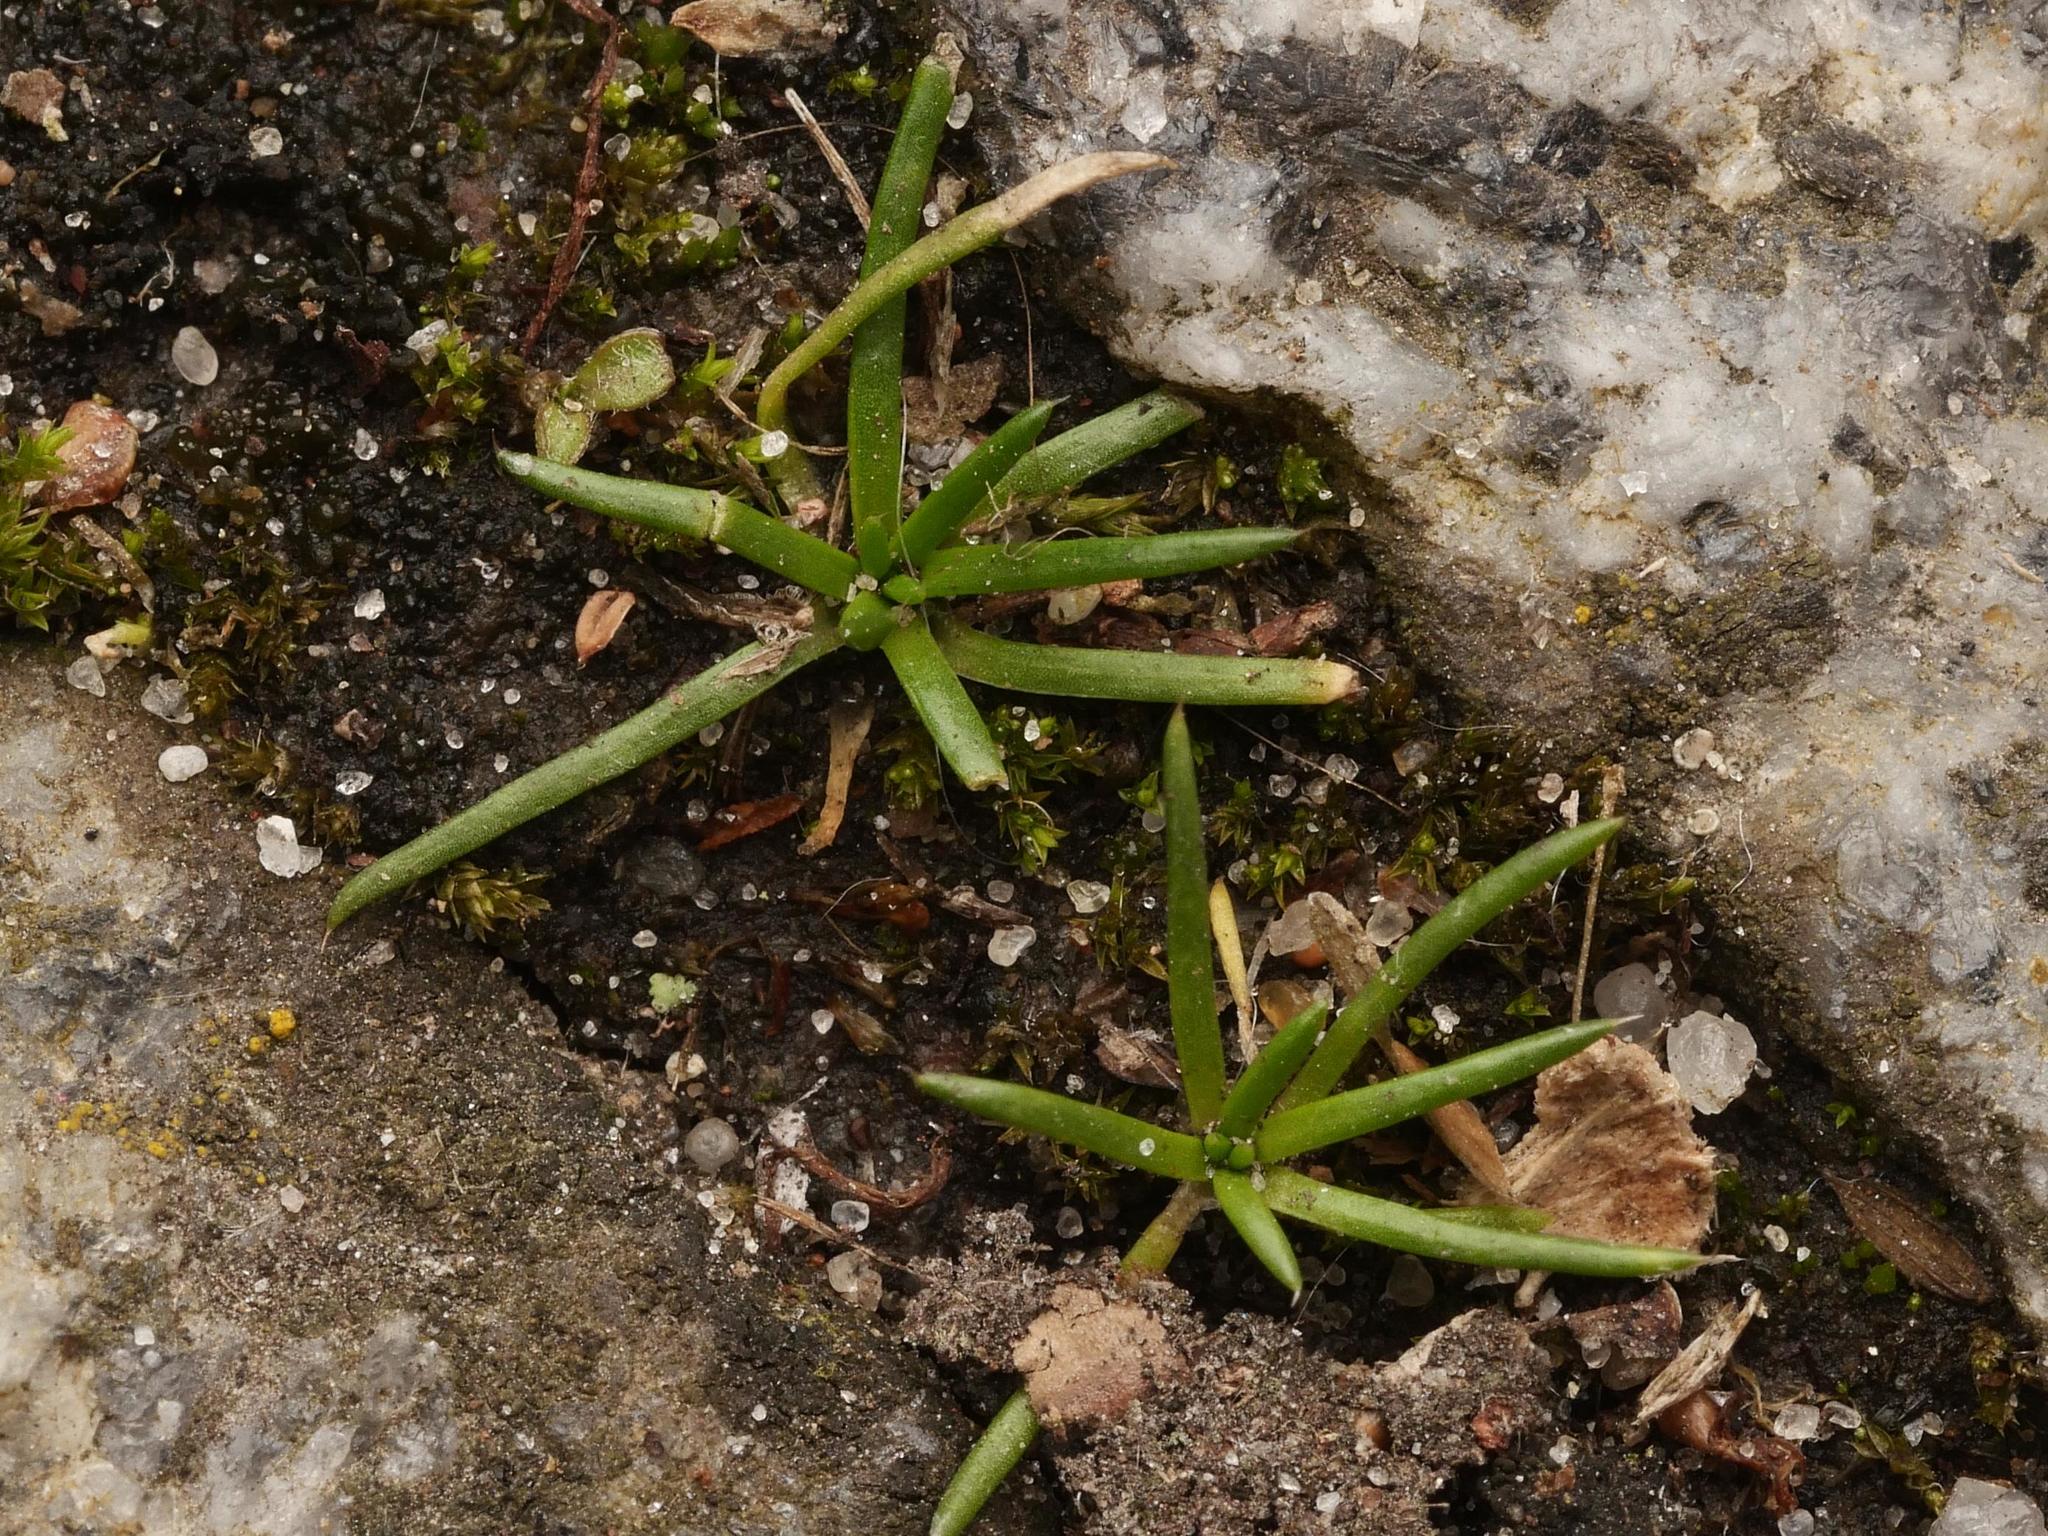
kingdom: Plantae
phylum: Tracheophyta
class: Magnoliopsida
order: Caryophyllales
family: Caryophyllaceae
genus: Sagina
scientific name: Sagina procumbens
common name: Procumbent pearlwort
